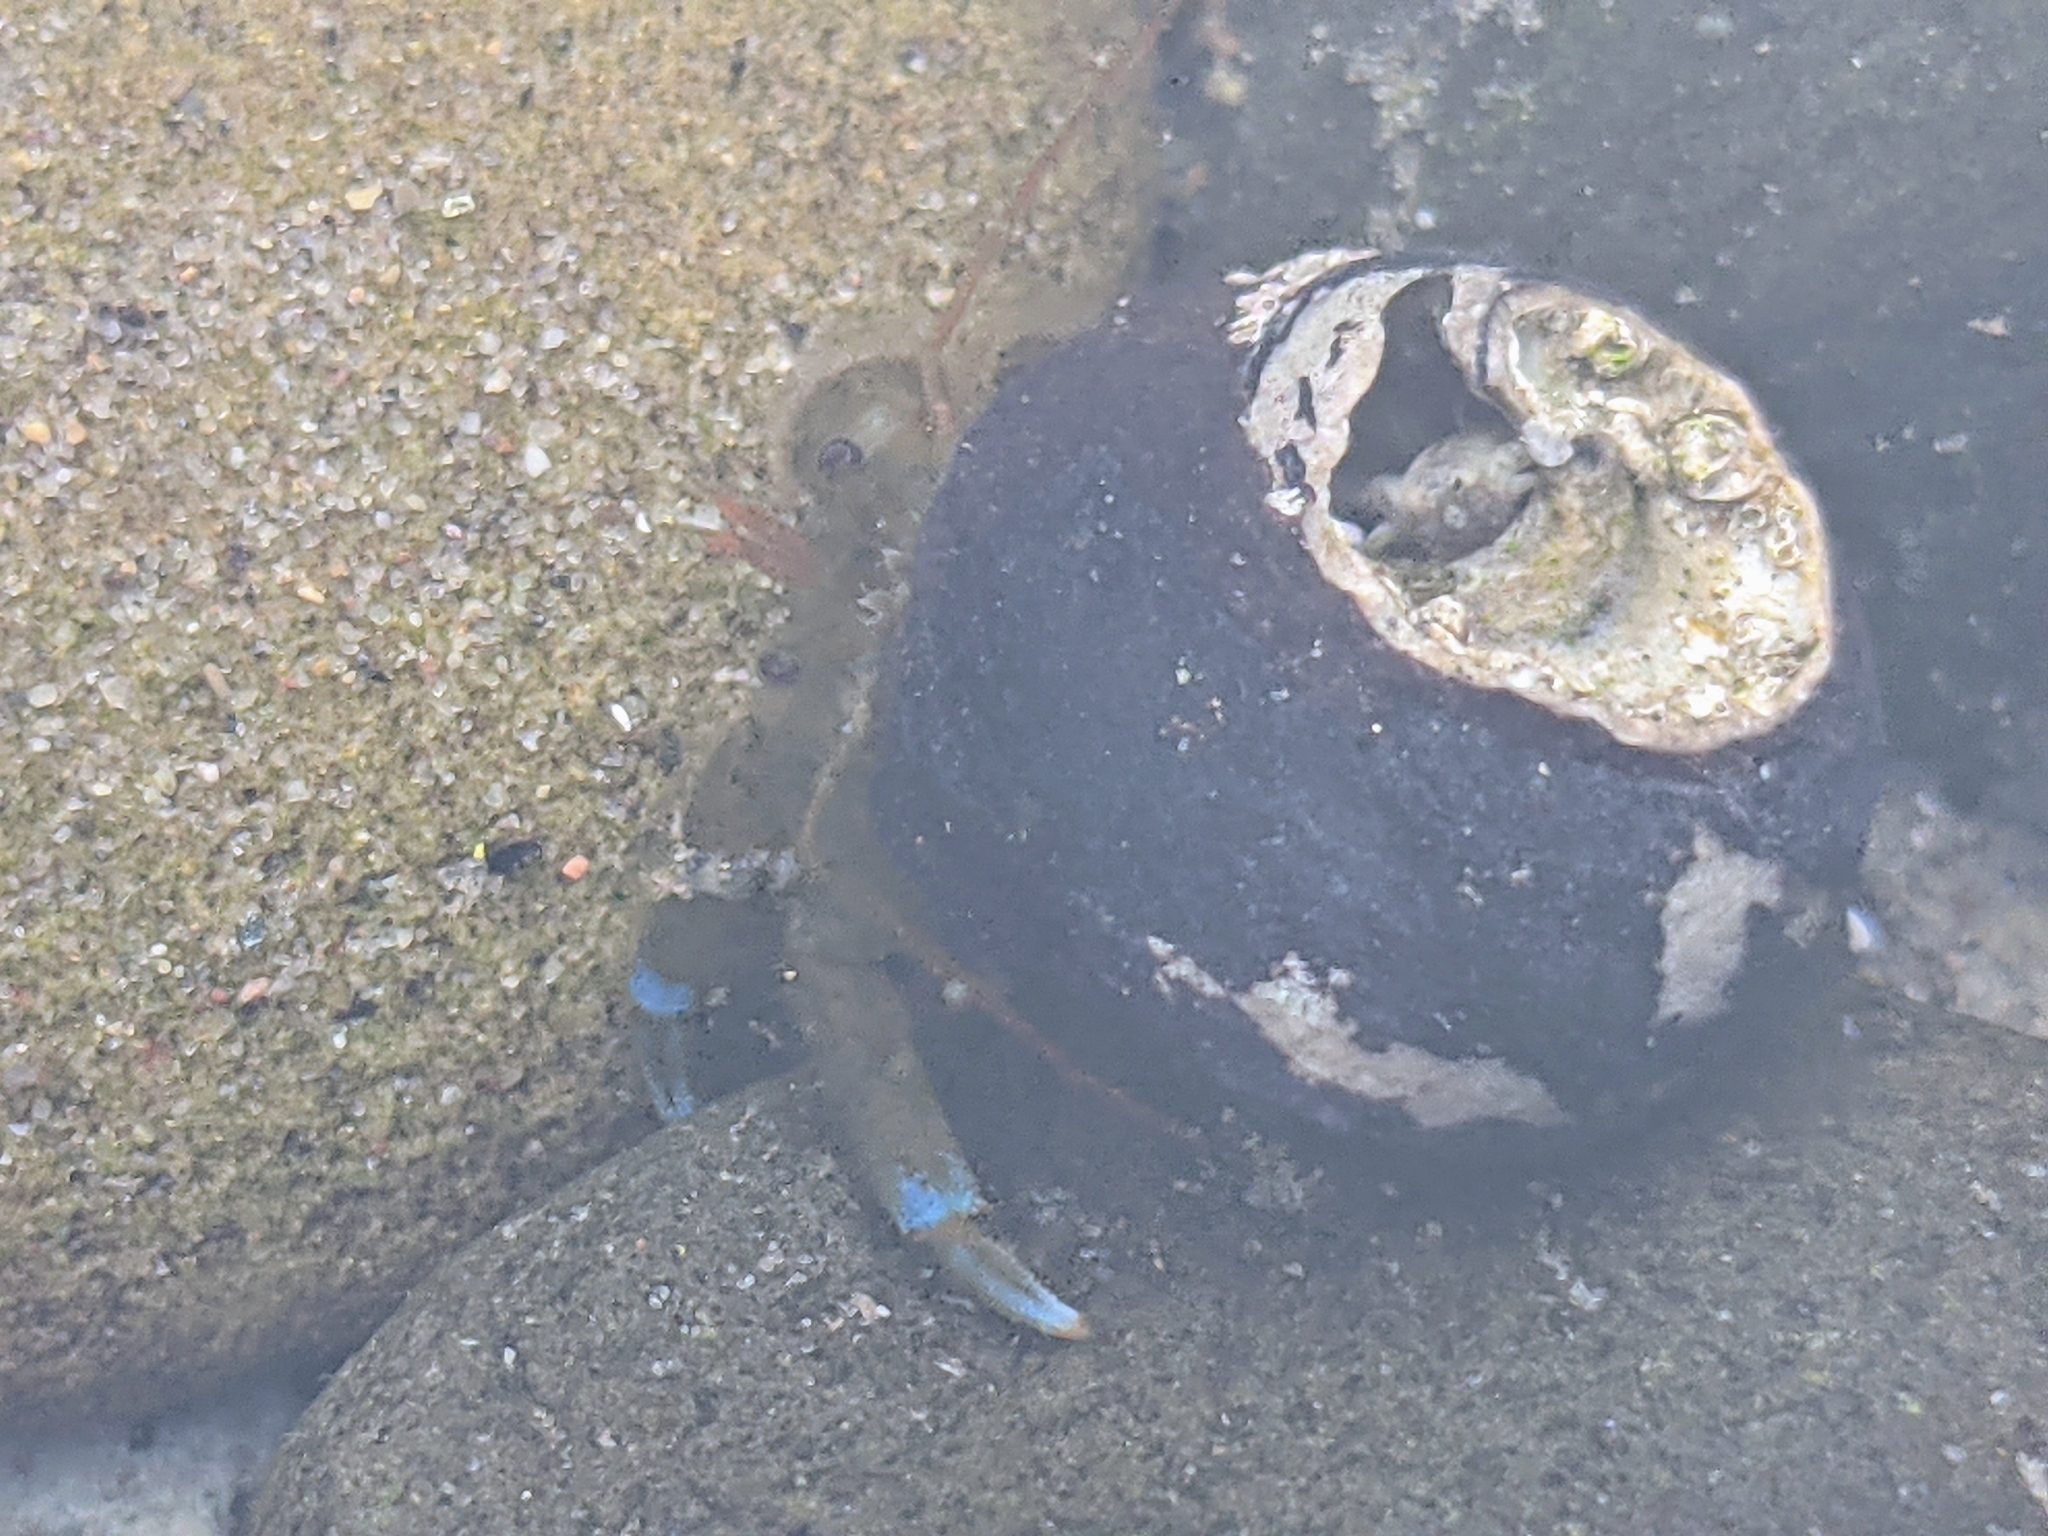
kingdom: Animalia
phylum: Arthropoda
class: Malacostraca
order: Decapoda
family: Paguridae
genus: Pagurus
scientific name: Pagurus samuelis
